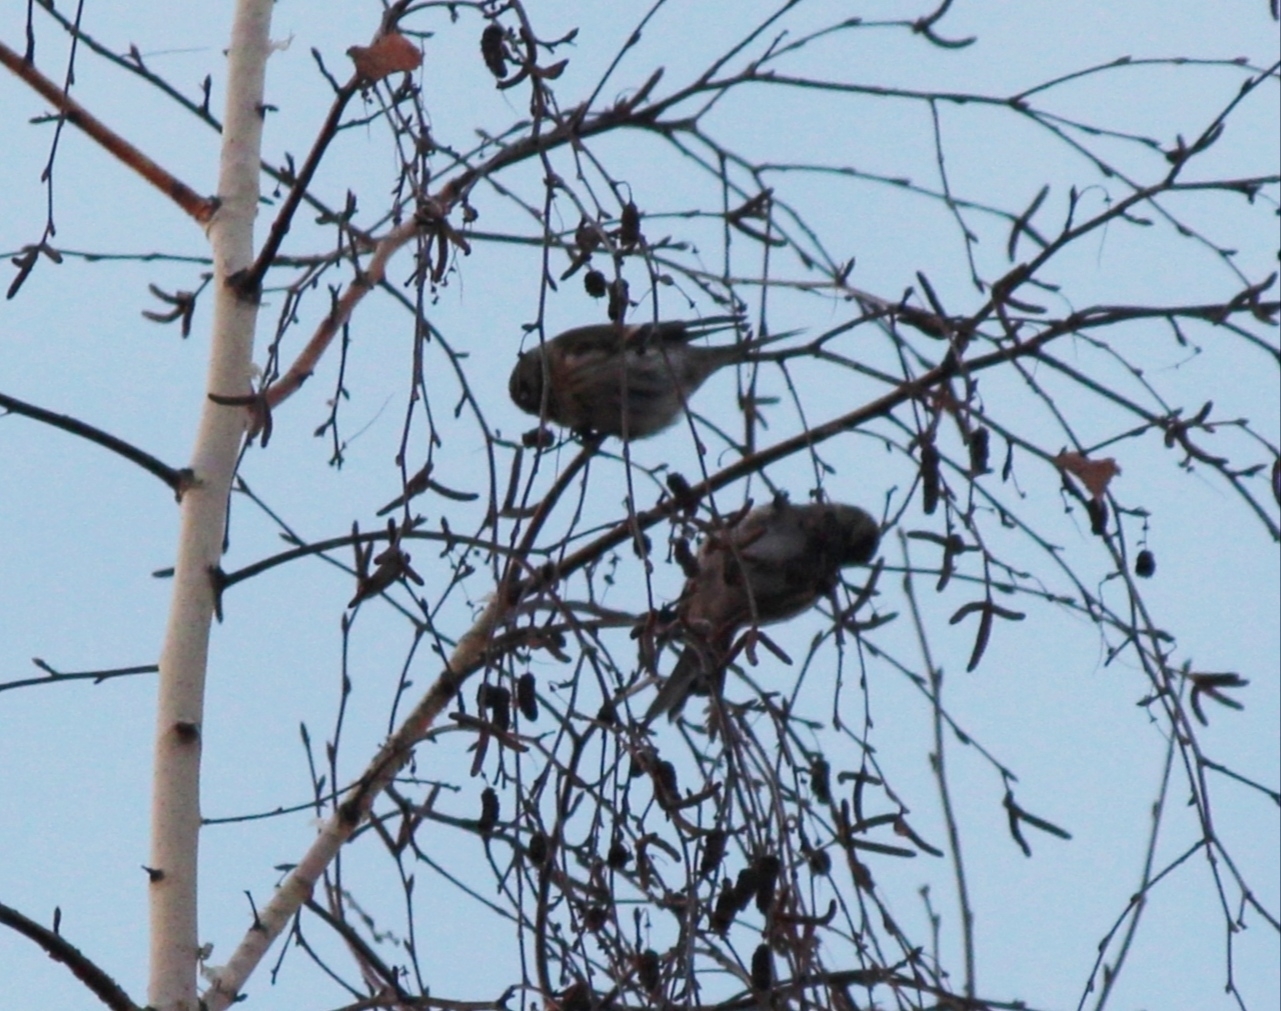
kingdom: Animalia
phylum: Chordata
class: Aves
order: Passeriformes
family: Fringillidae
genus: Acanthis
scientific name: Acanthis flammea
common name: Common redpoll
